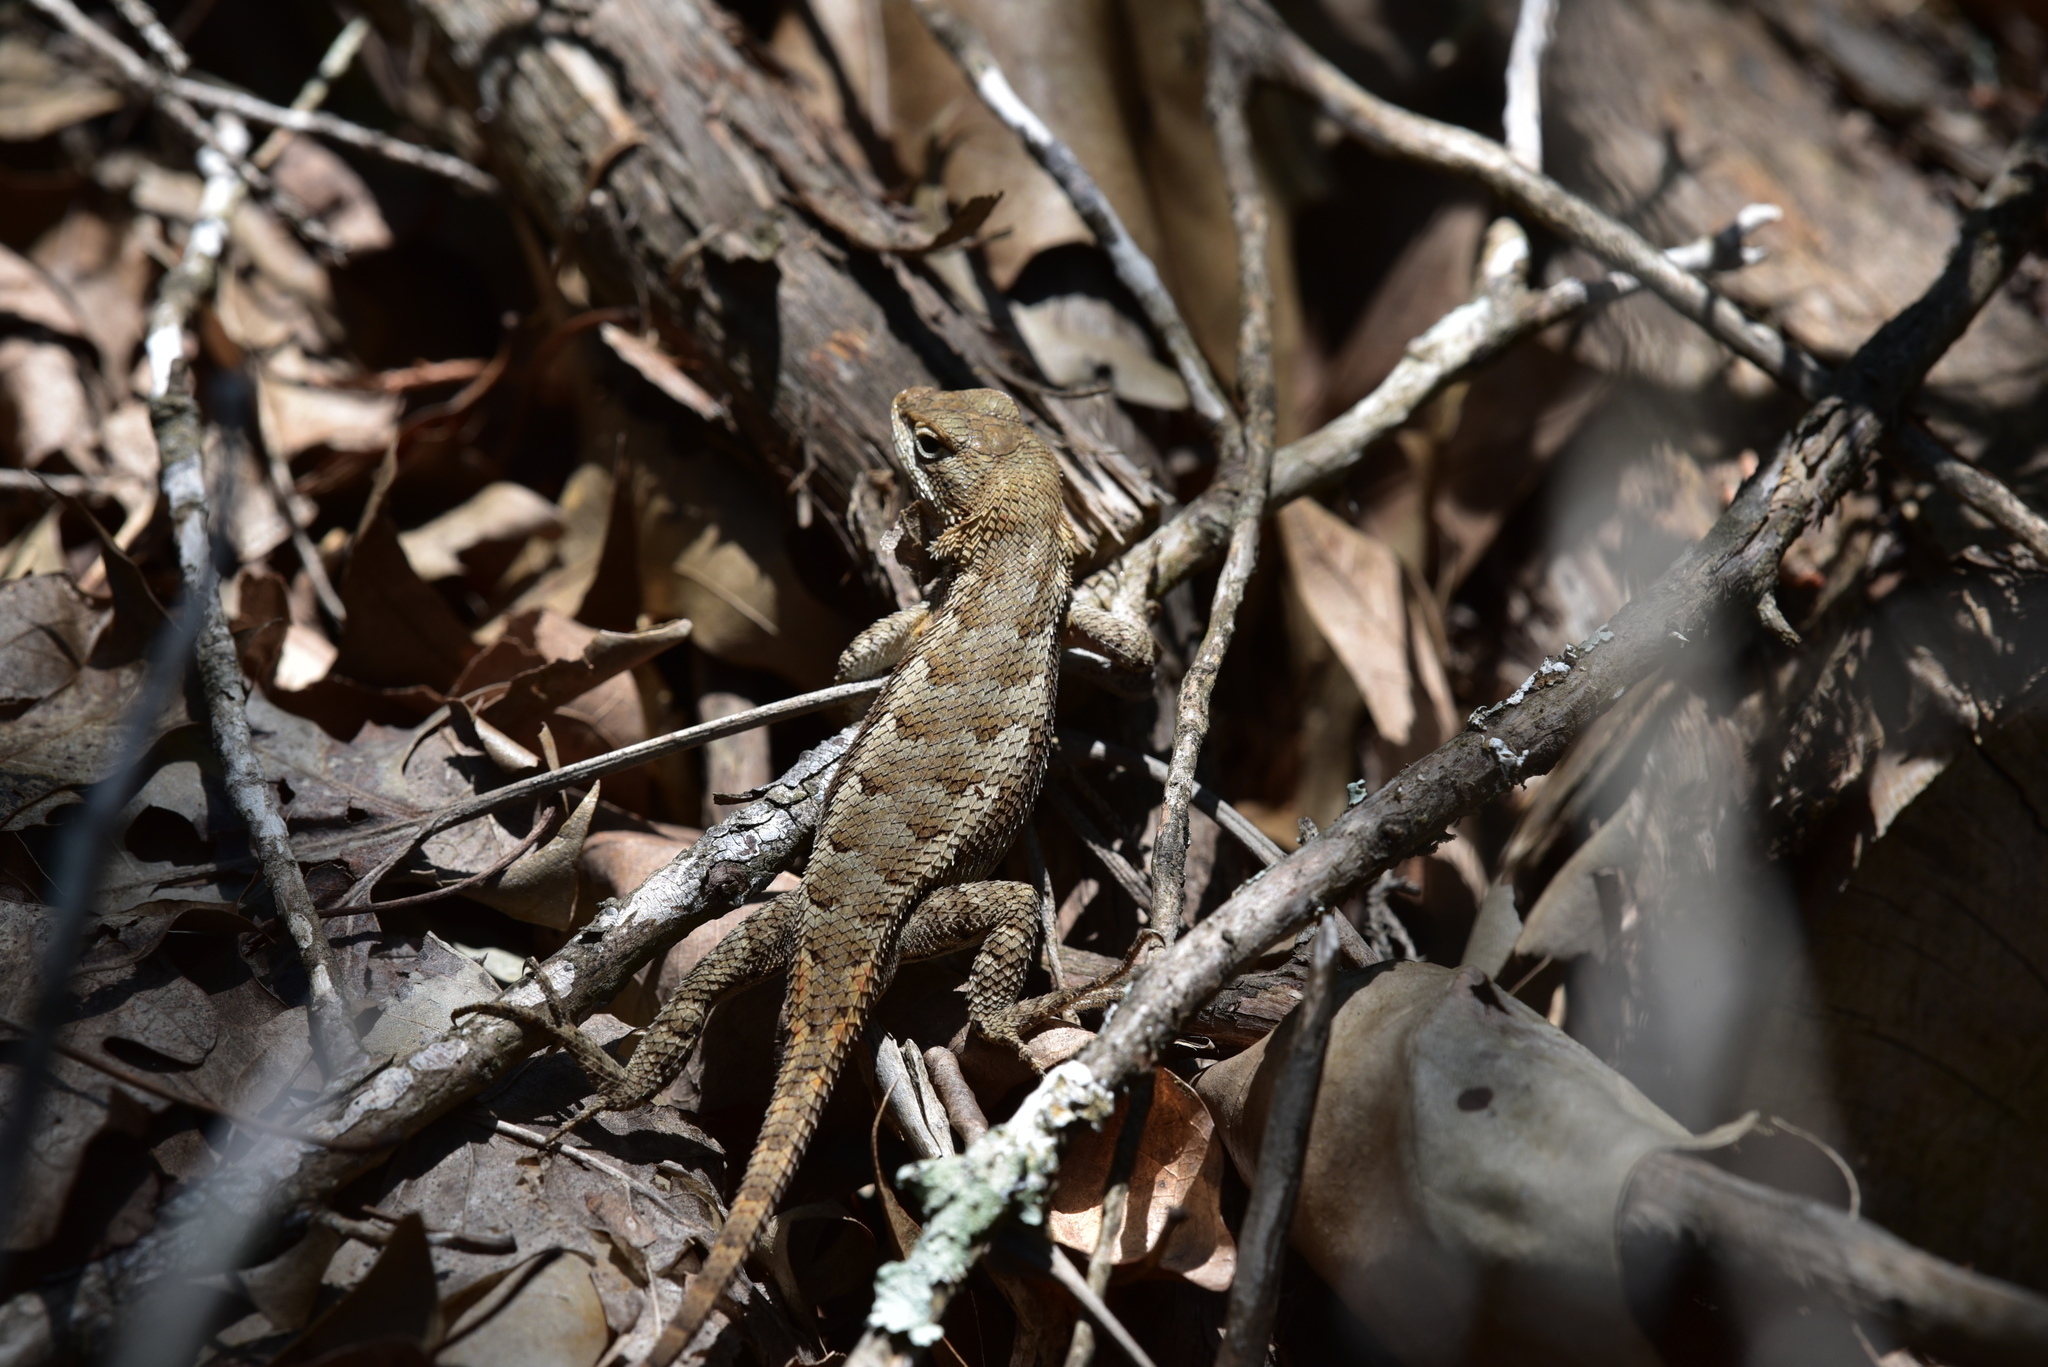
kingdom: Animalia
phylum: Chordata
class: Squamata
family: Phrynosomatidae
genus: Sceloporus
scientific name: Sceloporus consobrinus
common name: Southern prairie lizard
